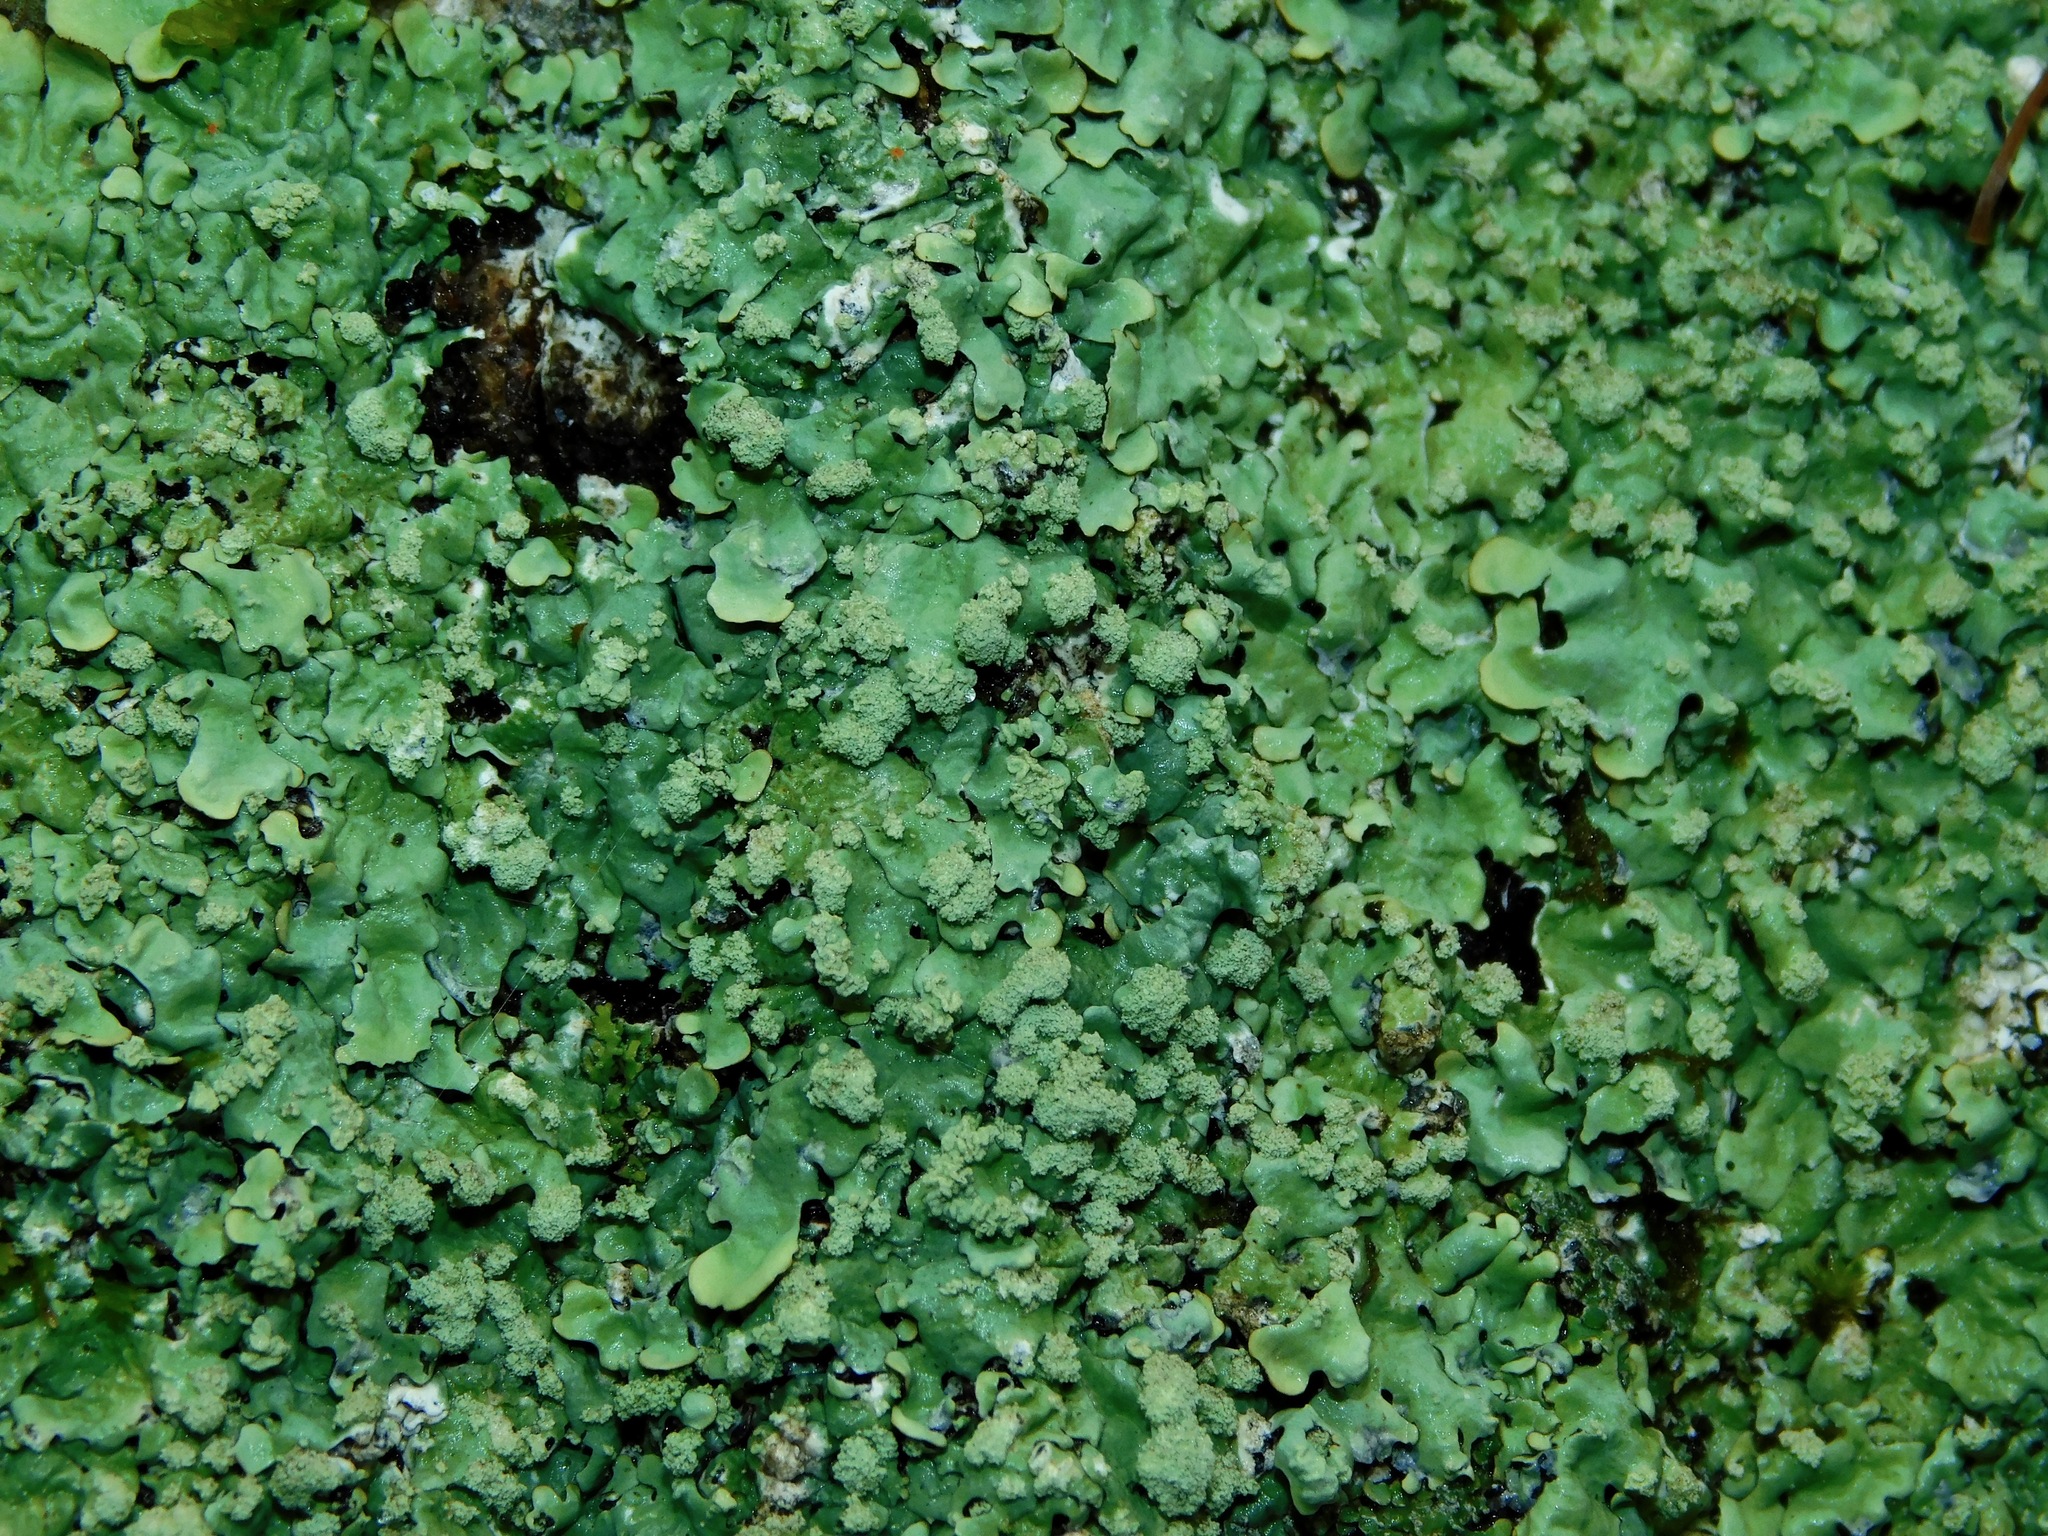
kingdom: Fungi
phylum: Ascomycota
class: Lecanoromycetes
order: Lecanorales
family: Parmeliaceae
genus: Myelochroa
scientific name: Myelochroa aurulenta
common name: Powdery axil-bristle lichen
